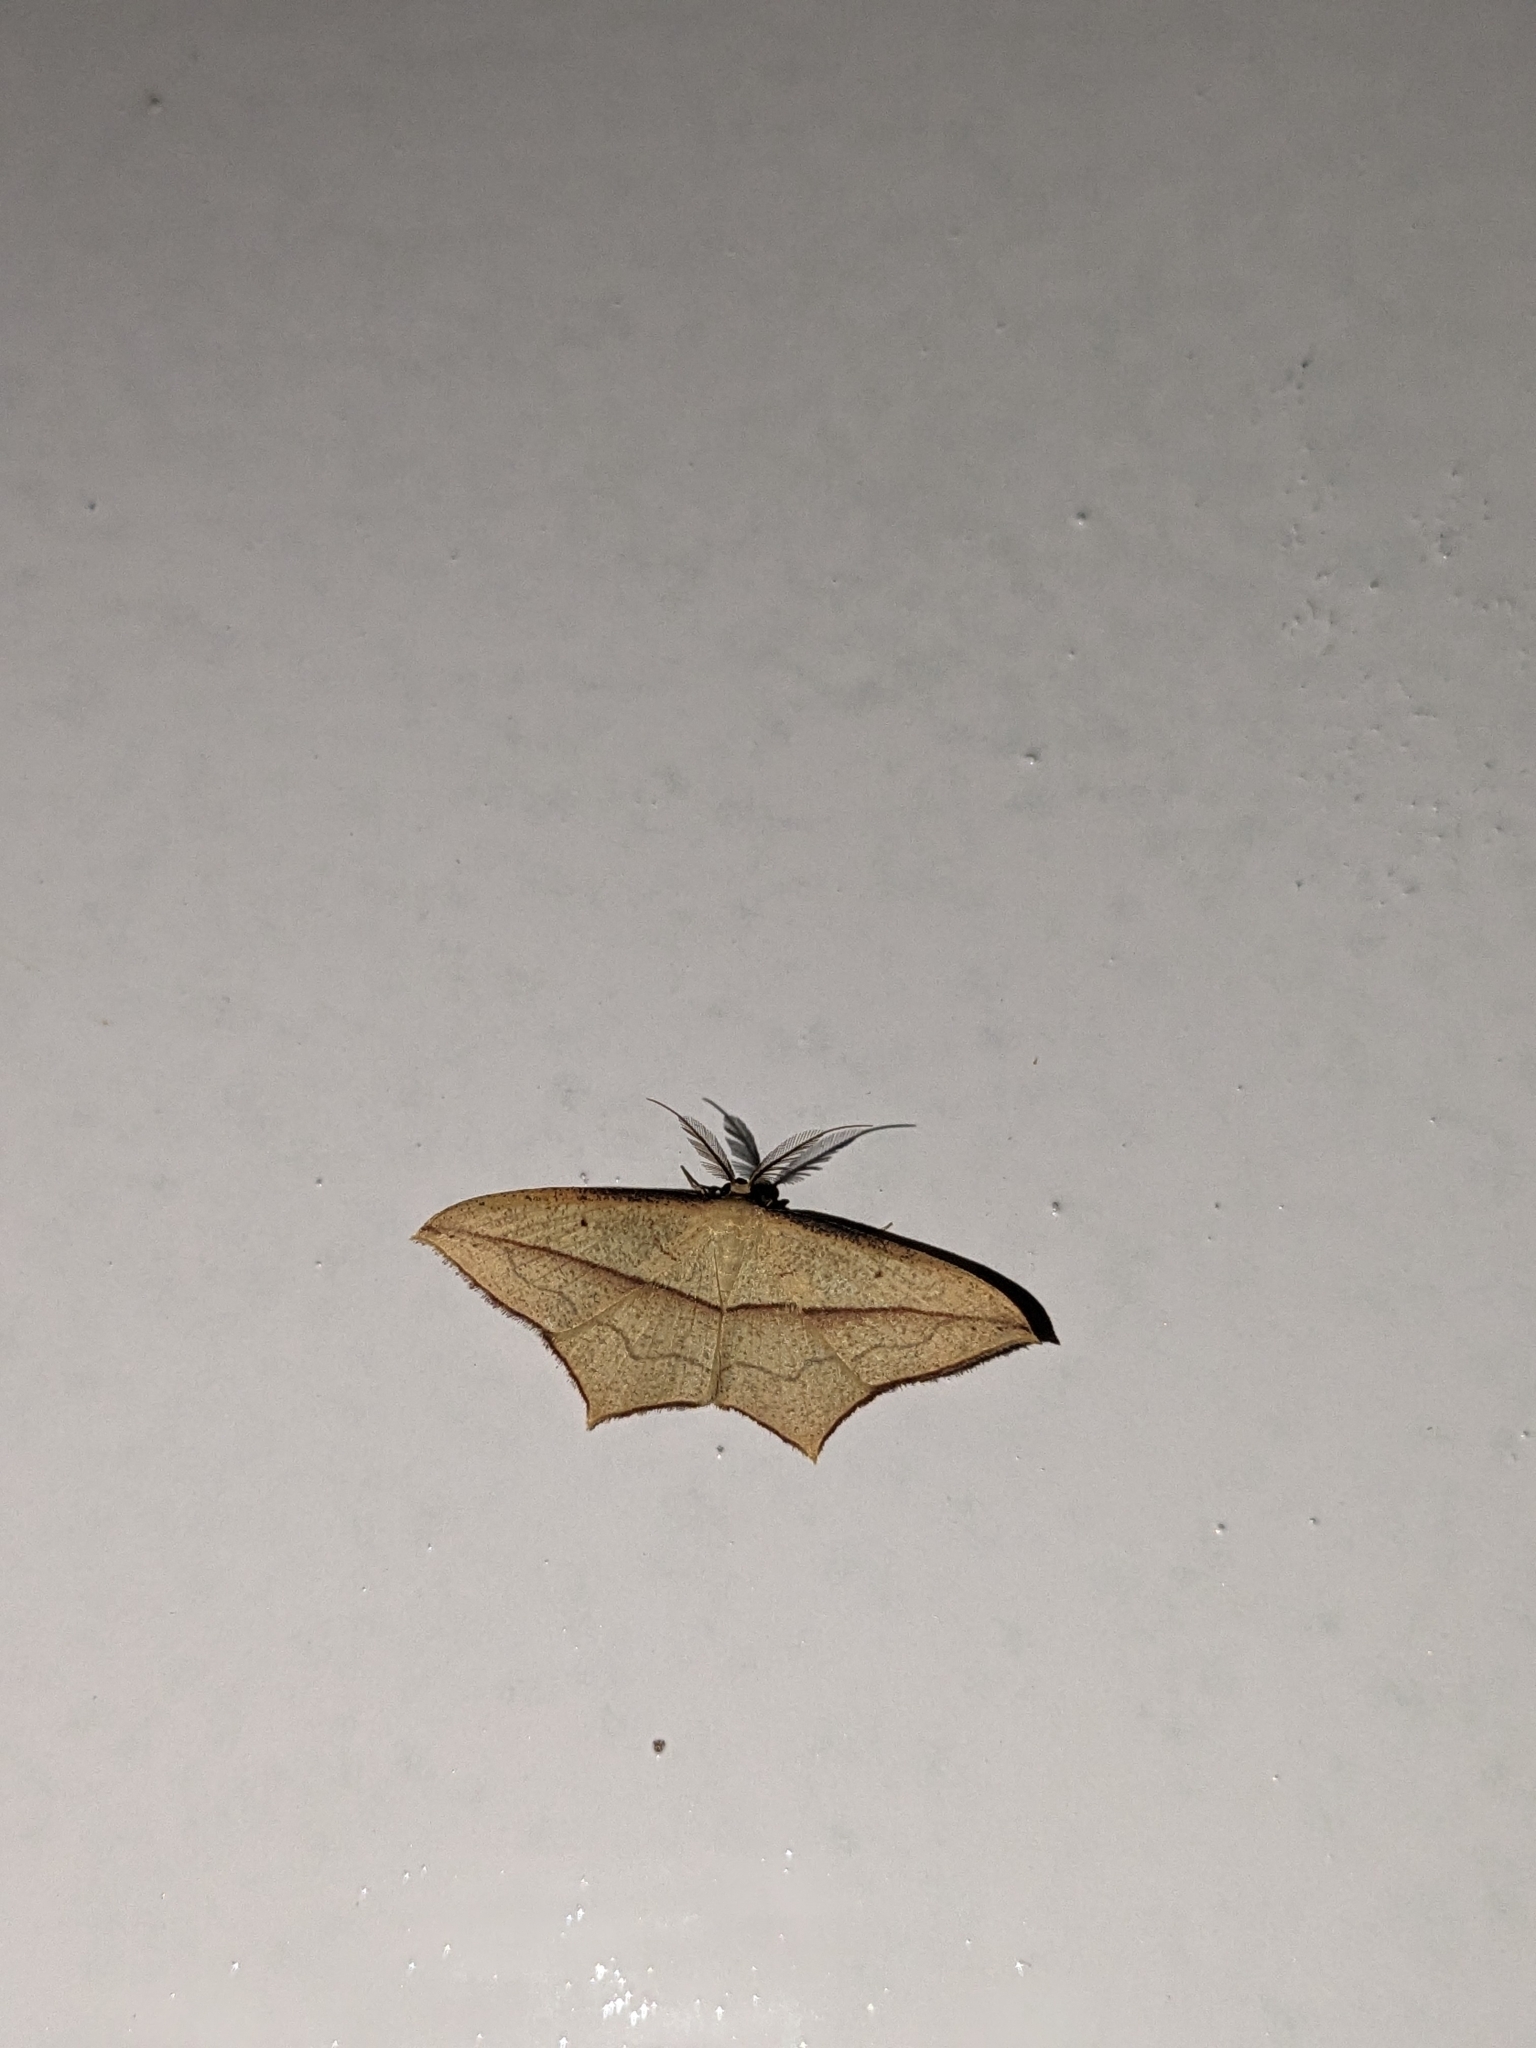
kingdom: Animalia
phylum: Arthropoda
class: Insecta
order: Lepidoptera
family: Geometridae
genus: Timandra
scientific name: Timandra convectaria
